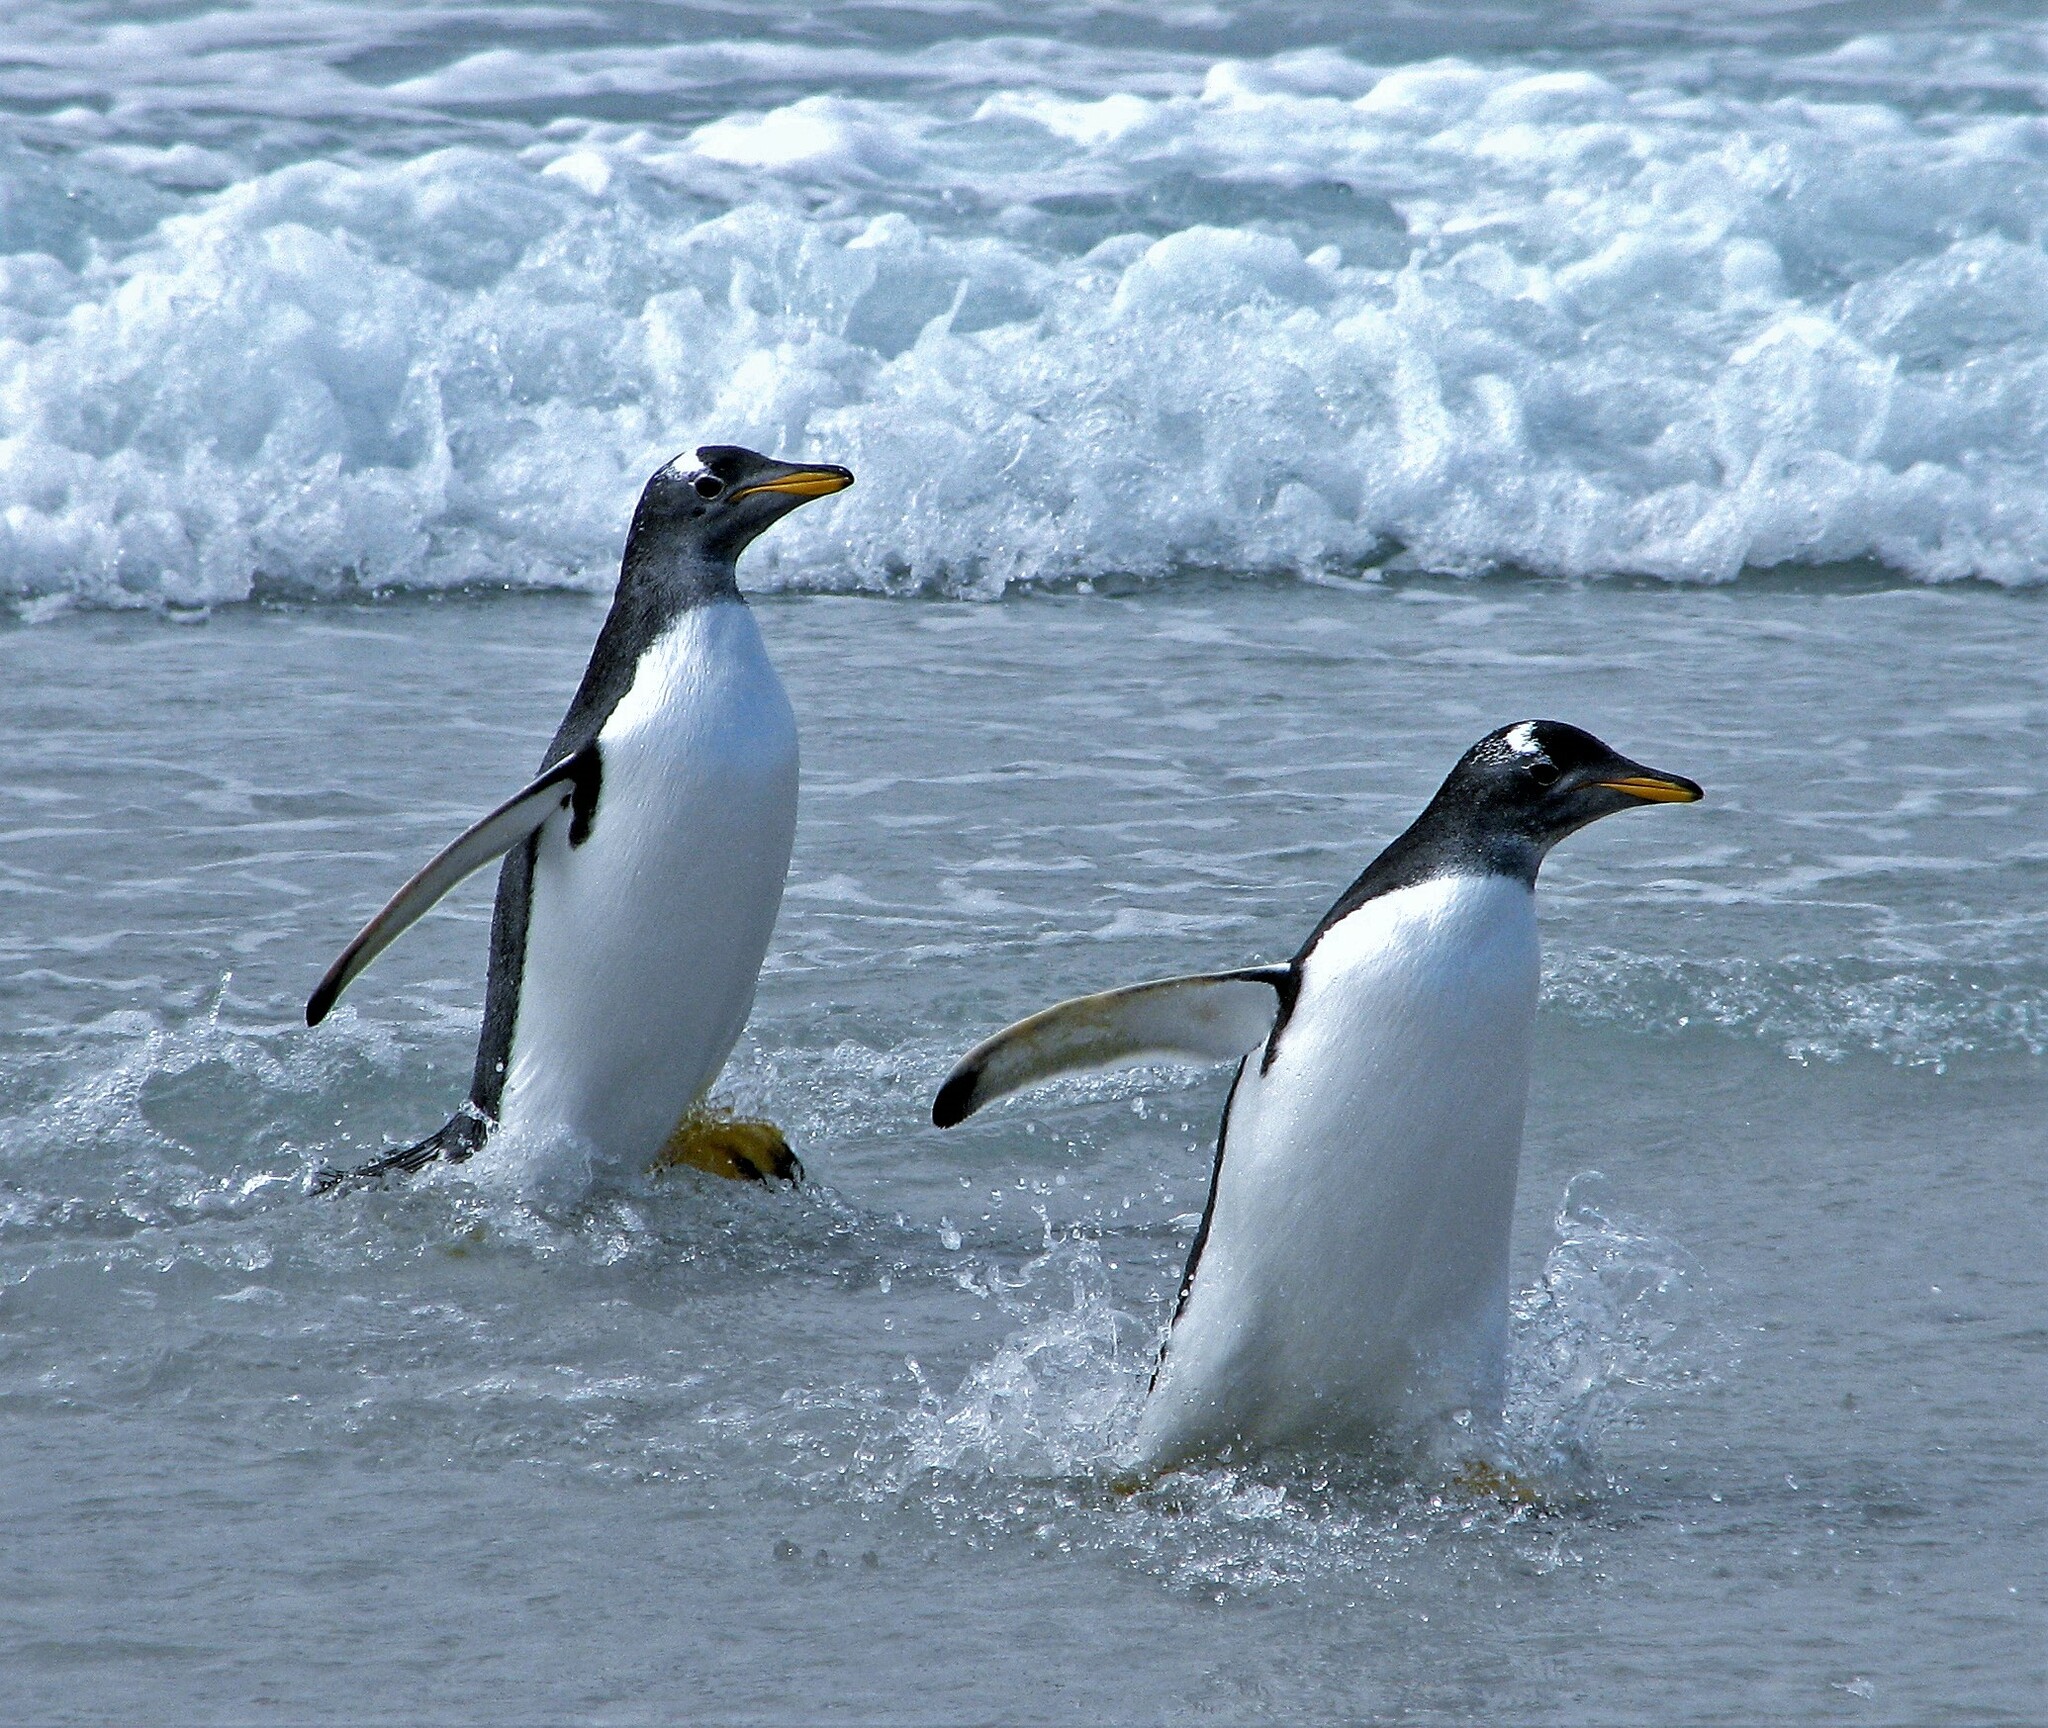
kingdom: Animalia
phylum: Chordata
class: Aves
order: Sphenisciformes
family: Spheniscidae
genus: Pygoscelis
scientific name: Pygoscelis papua
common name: Gentoo penguin
